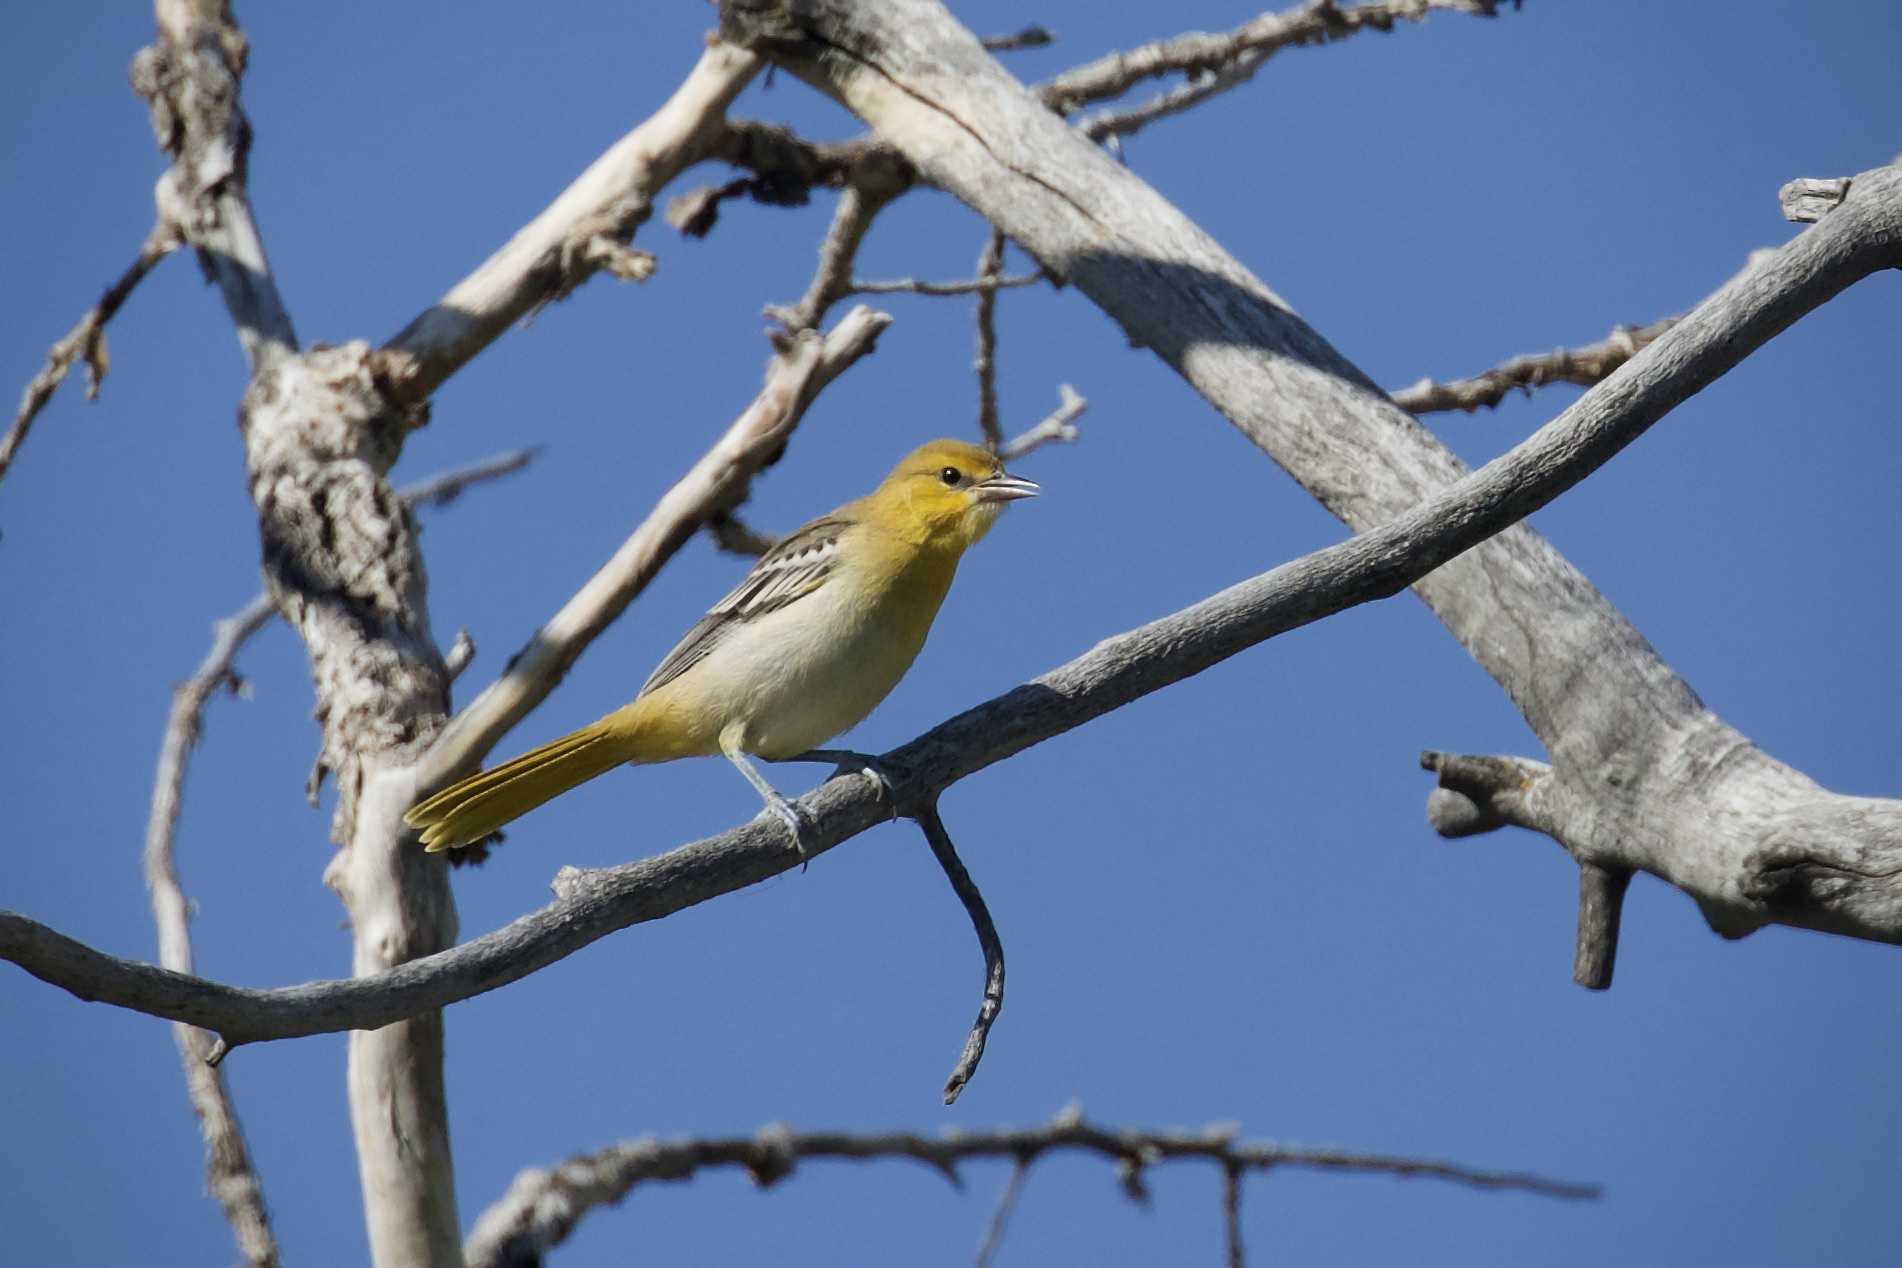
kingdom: Animalia
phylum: Chordata
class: Aves
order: Passeriformes
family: Icteridae
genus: Icterus
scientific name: Icterus bullockii
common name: Bullock's oriole
